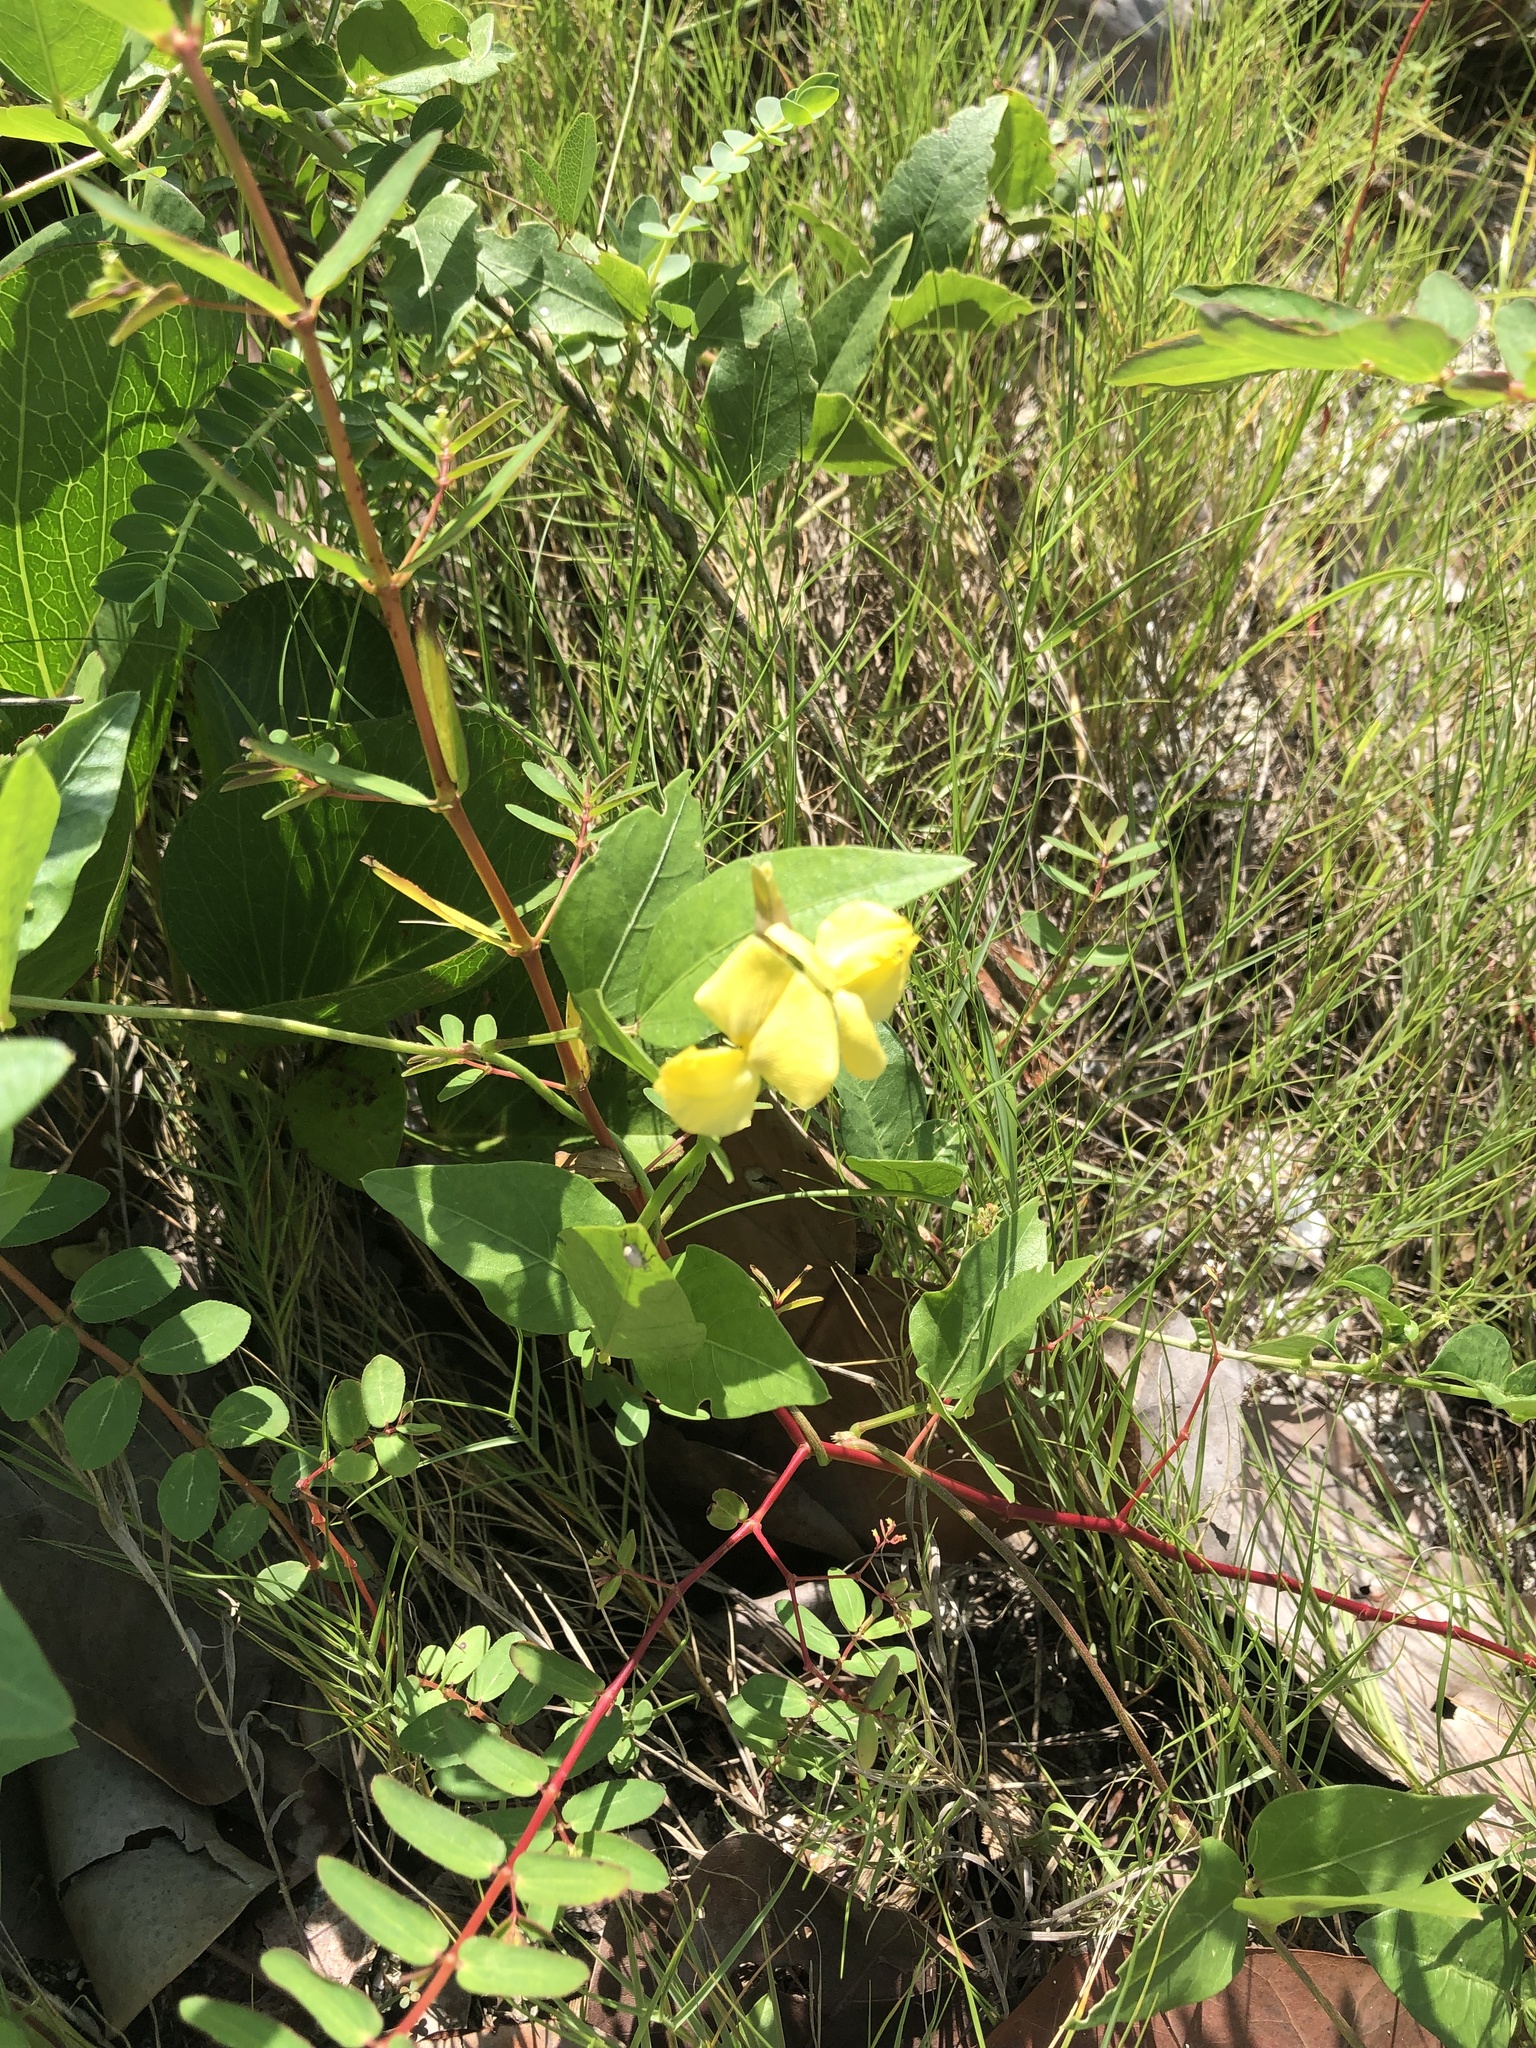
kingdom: Plantae
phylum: Tracheophyta
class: Magnoliopsida
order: Fabales
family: Fabaceae
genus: Vigna
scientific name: Vigna luteola
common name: Hairypod cowpea
